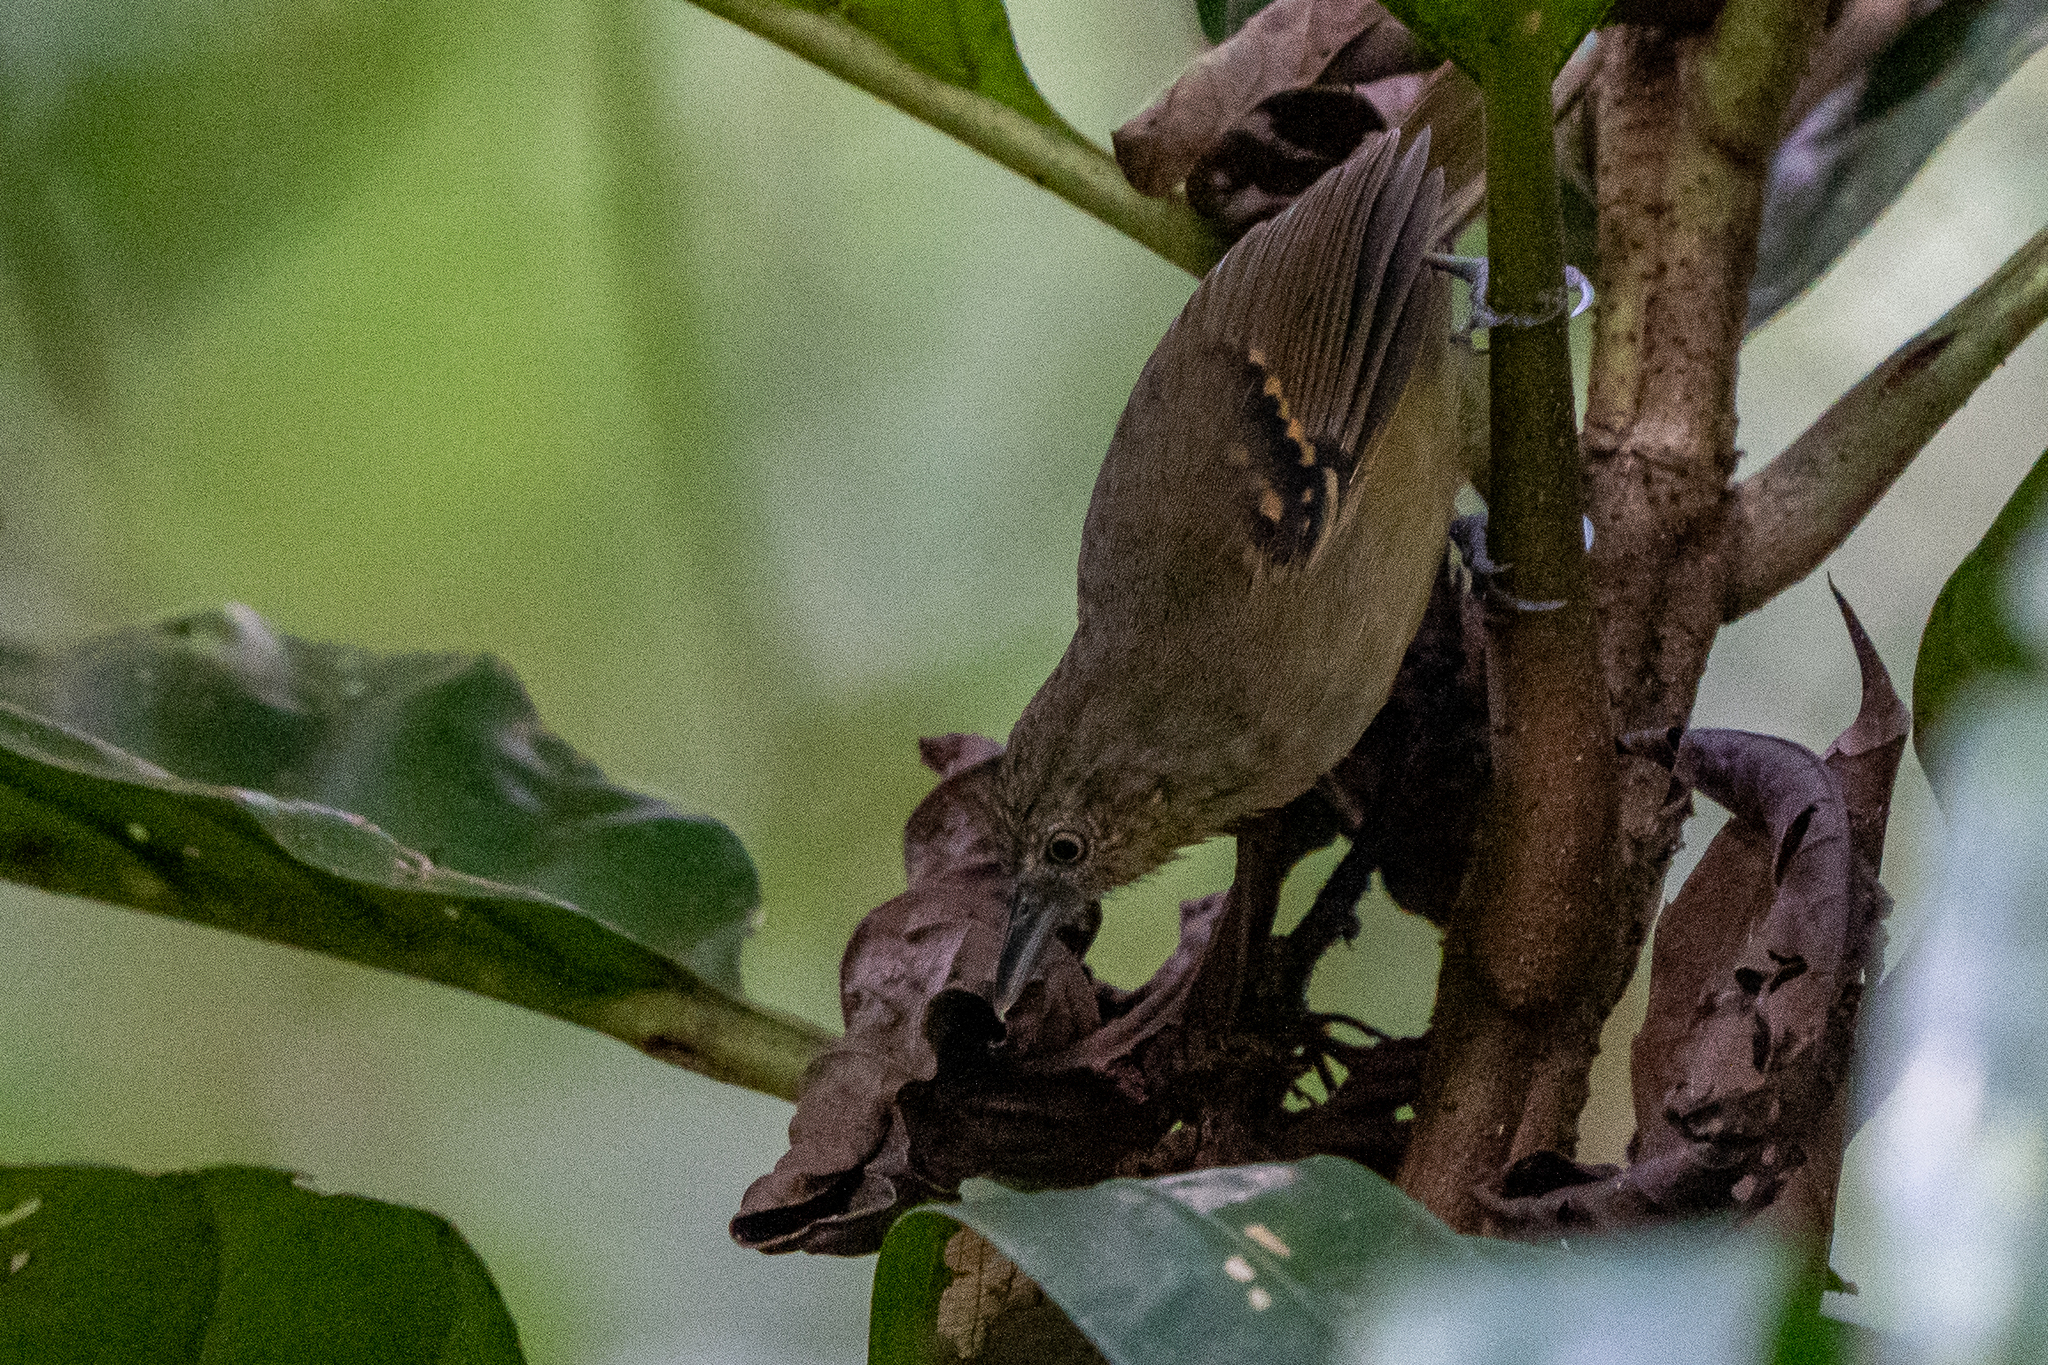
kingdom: Animalia
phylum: Chordata
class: Aves
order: Passeriformes
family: Thamnophilidae
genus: Epinecrophylla
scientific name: Epinecrophylla fulviventris
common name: Checker-throated antwren
